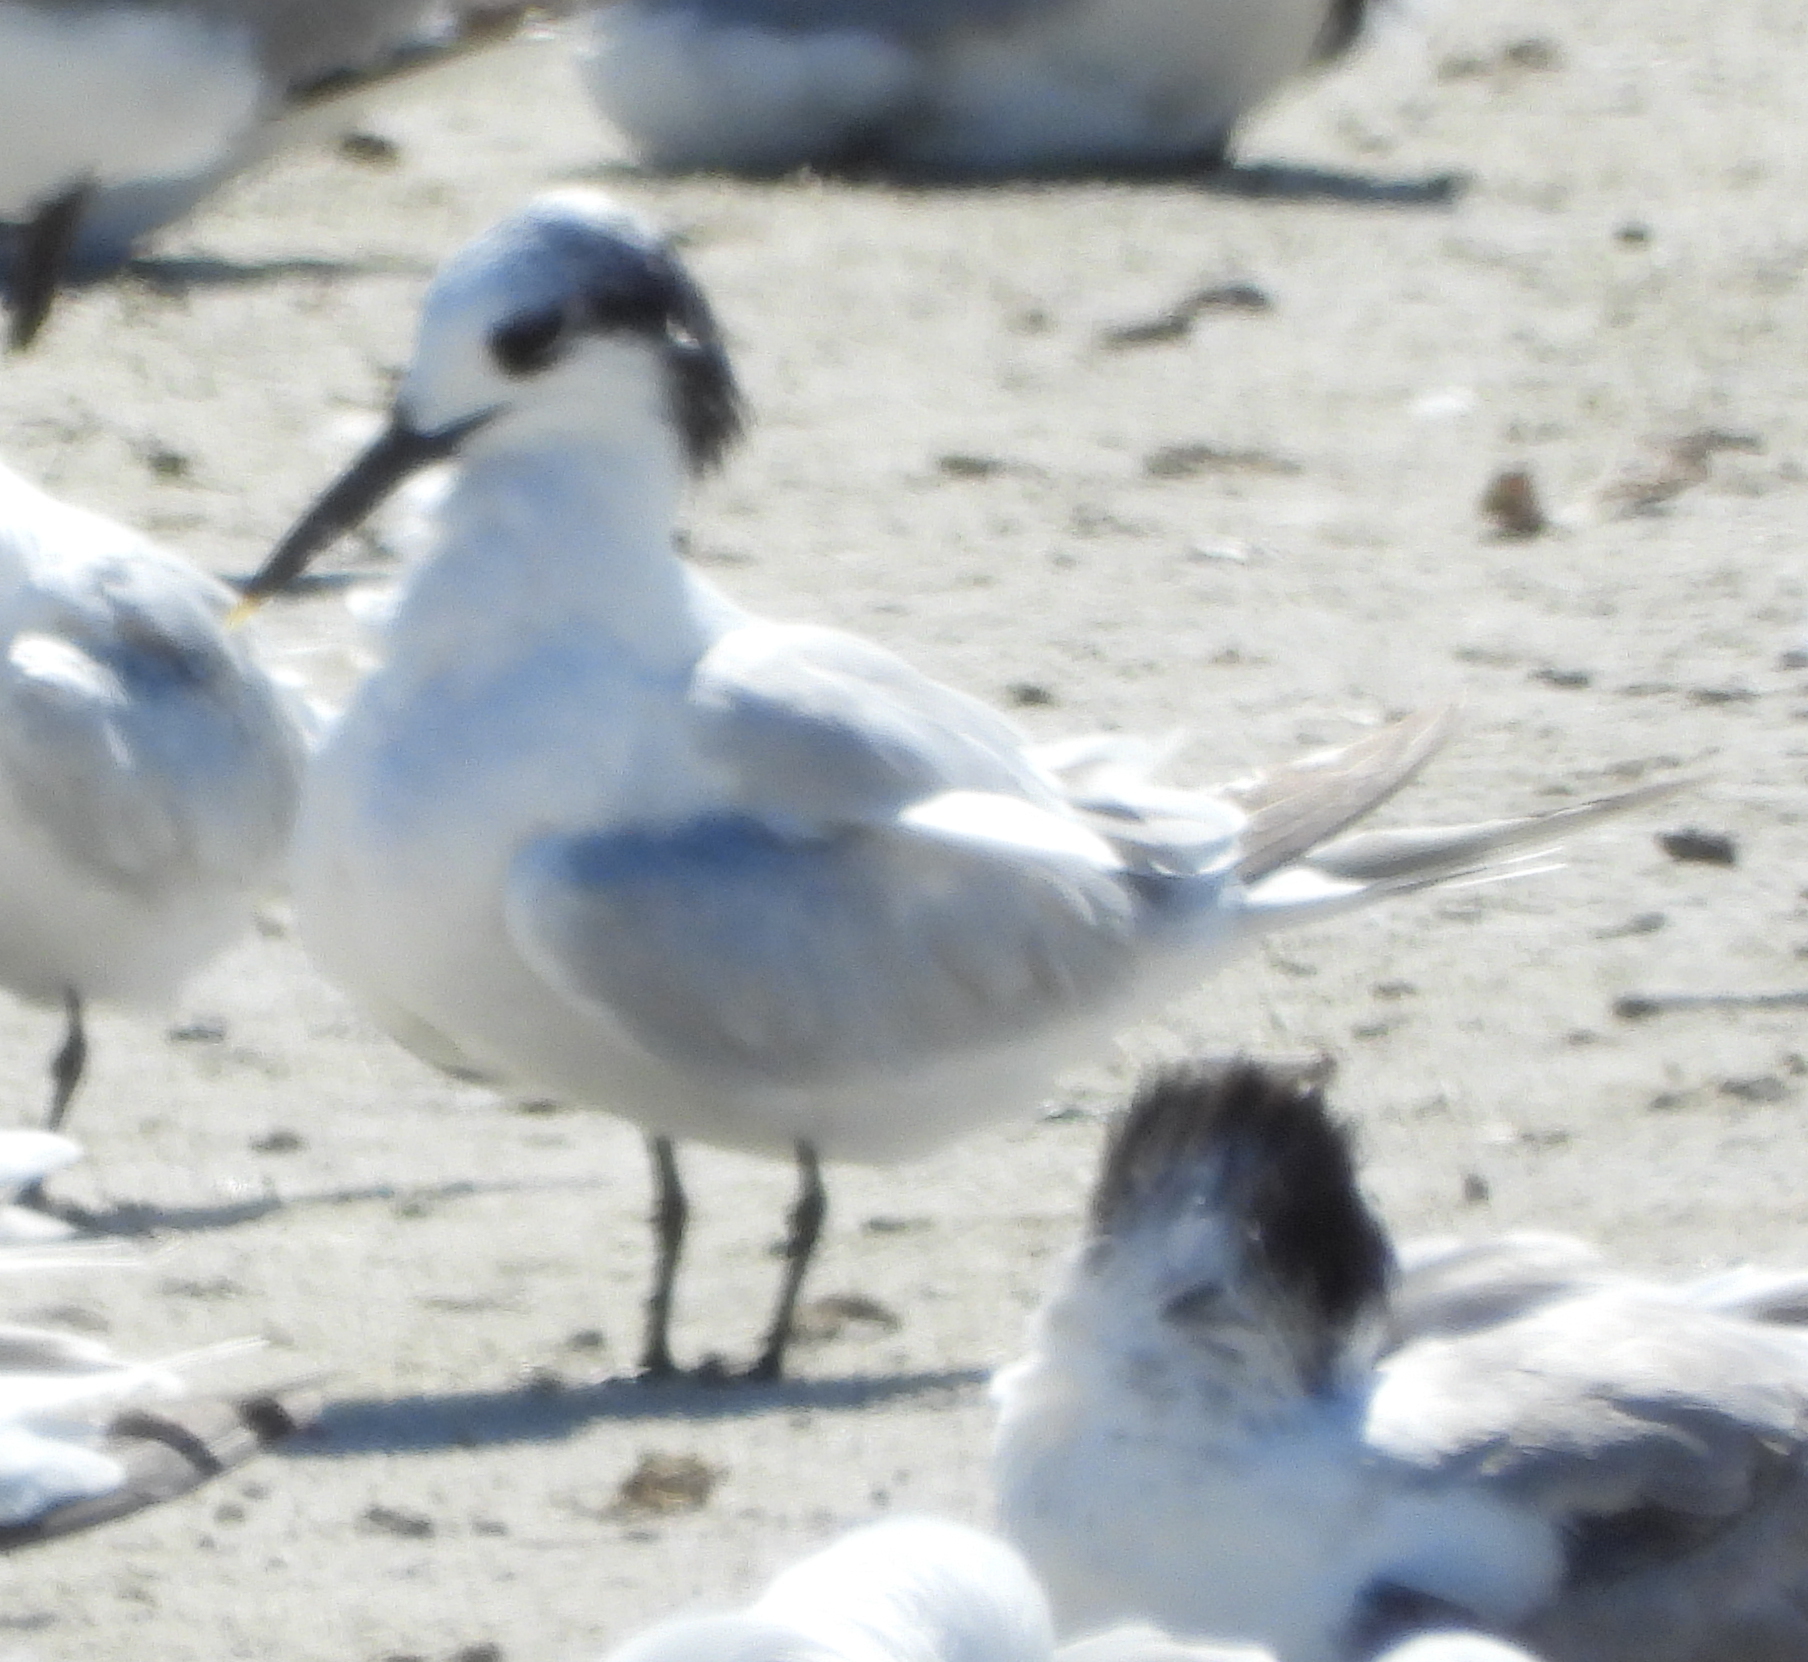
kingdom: Animalia
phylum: Chordata
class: Aves
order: Charadriiformes
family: Laridae
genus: Thalasseus
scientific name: Thalasseus sandvicensis
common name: Sandwich tern
